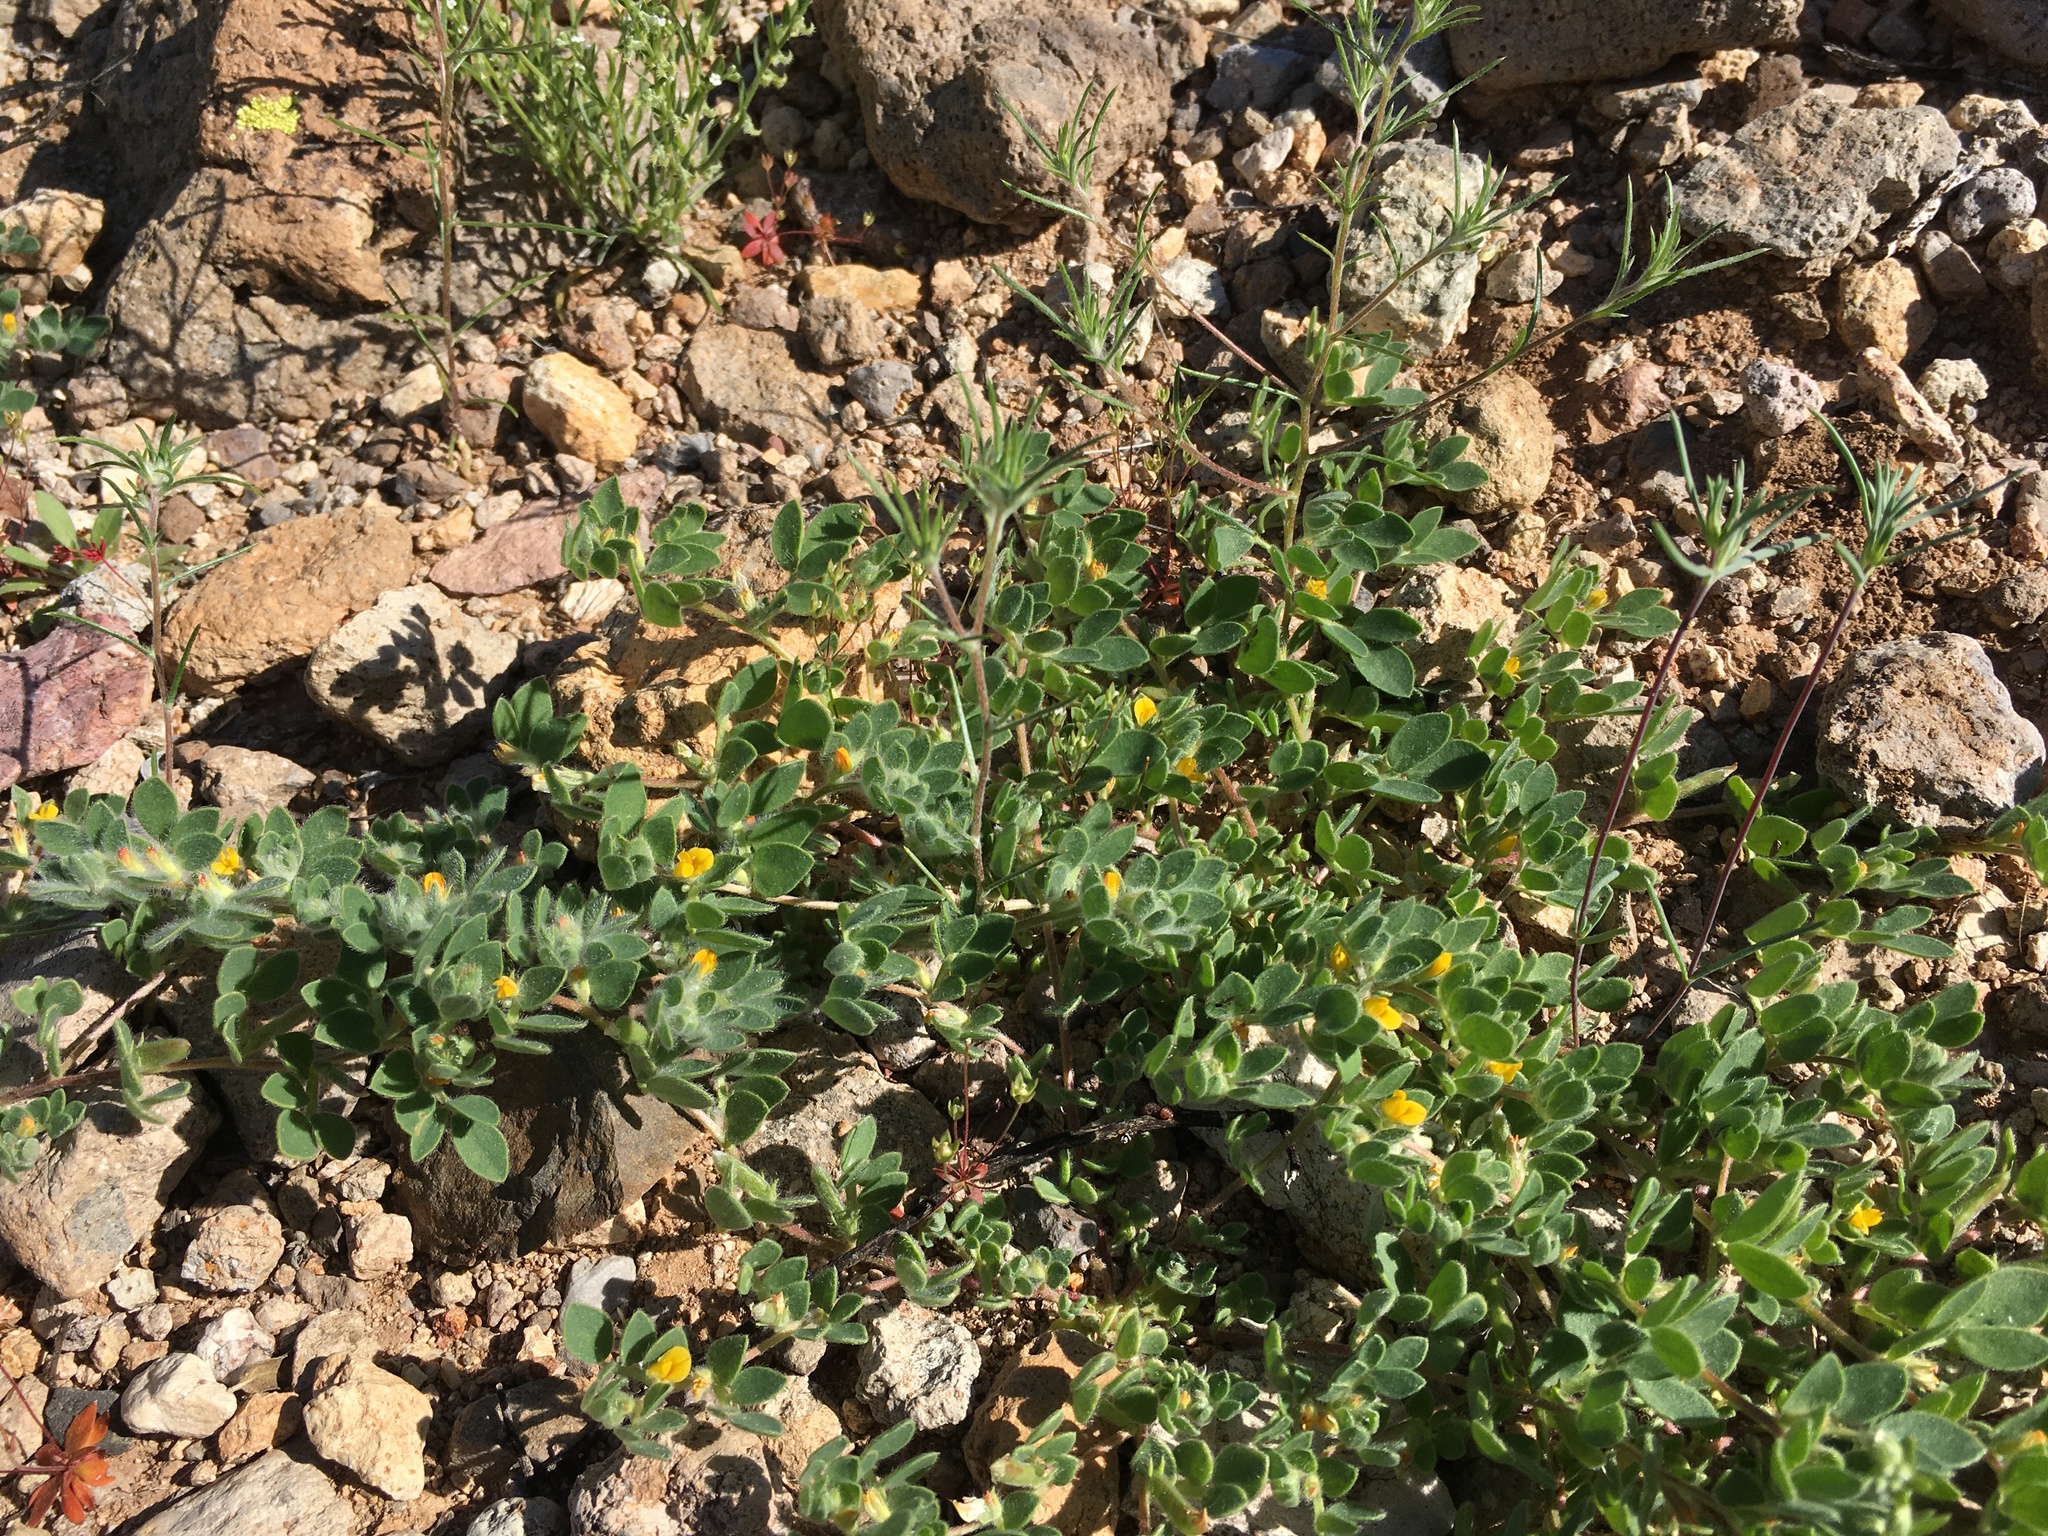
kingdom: Plantae
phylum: Tracheophyta
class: Magnoliopsida
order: Fabales
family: Fabaceae
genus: Acmispon
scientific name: Acmispon brachycarpus
